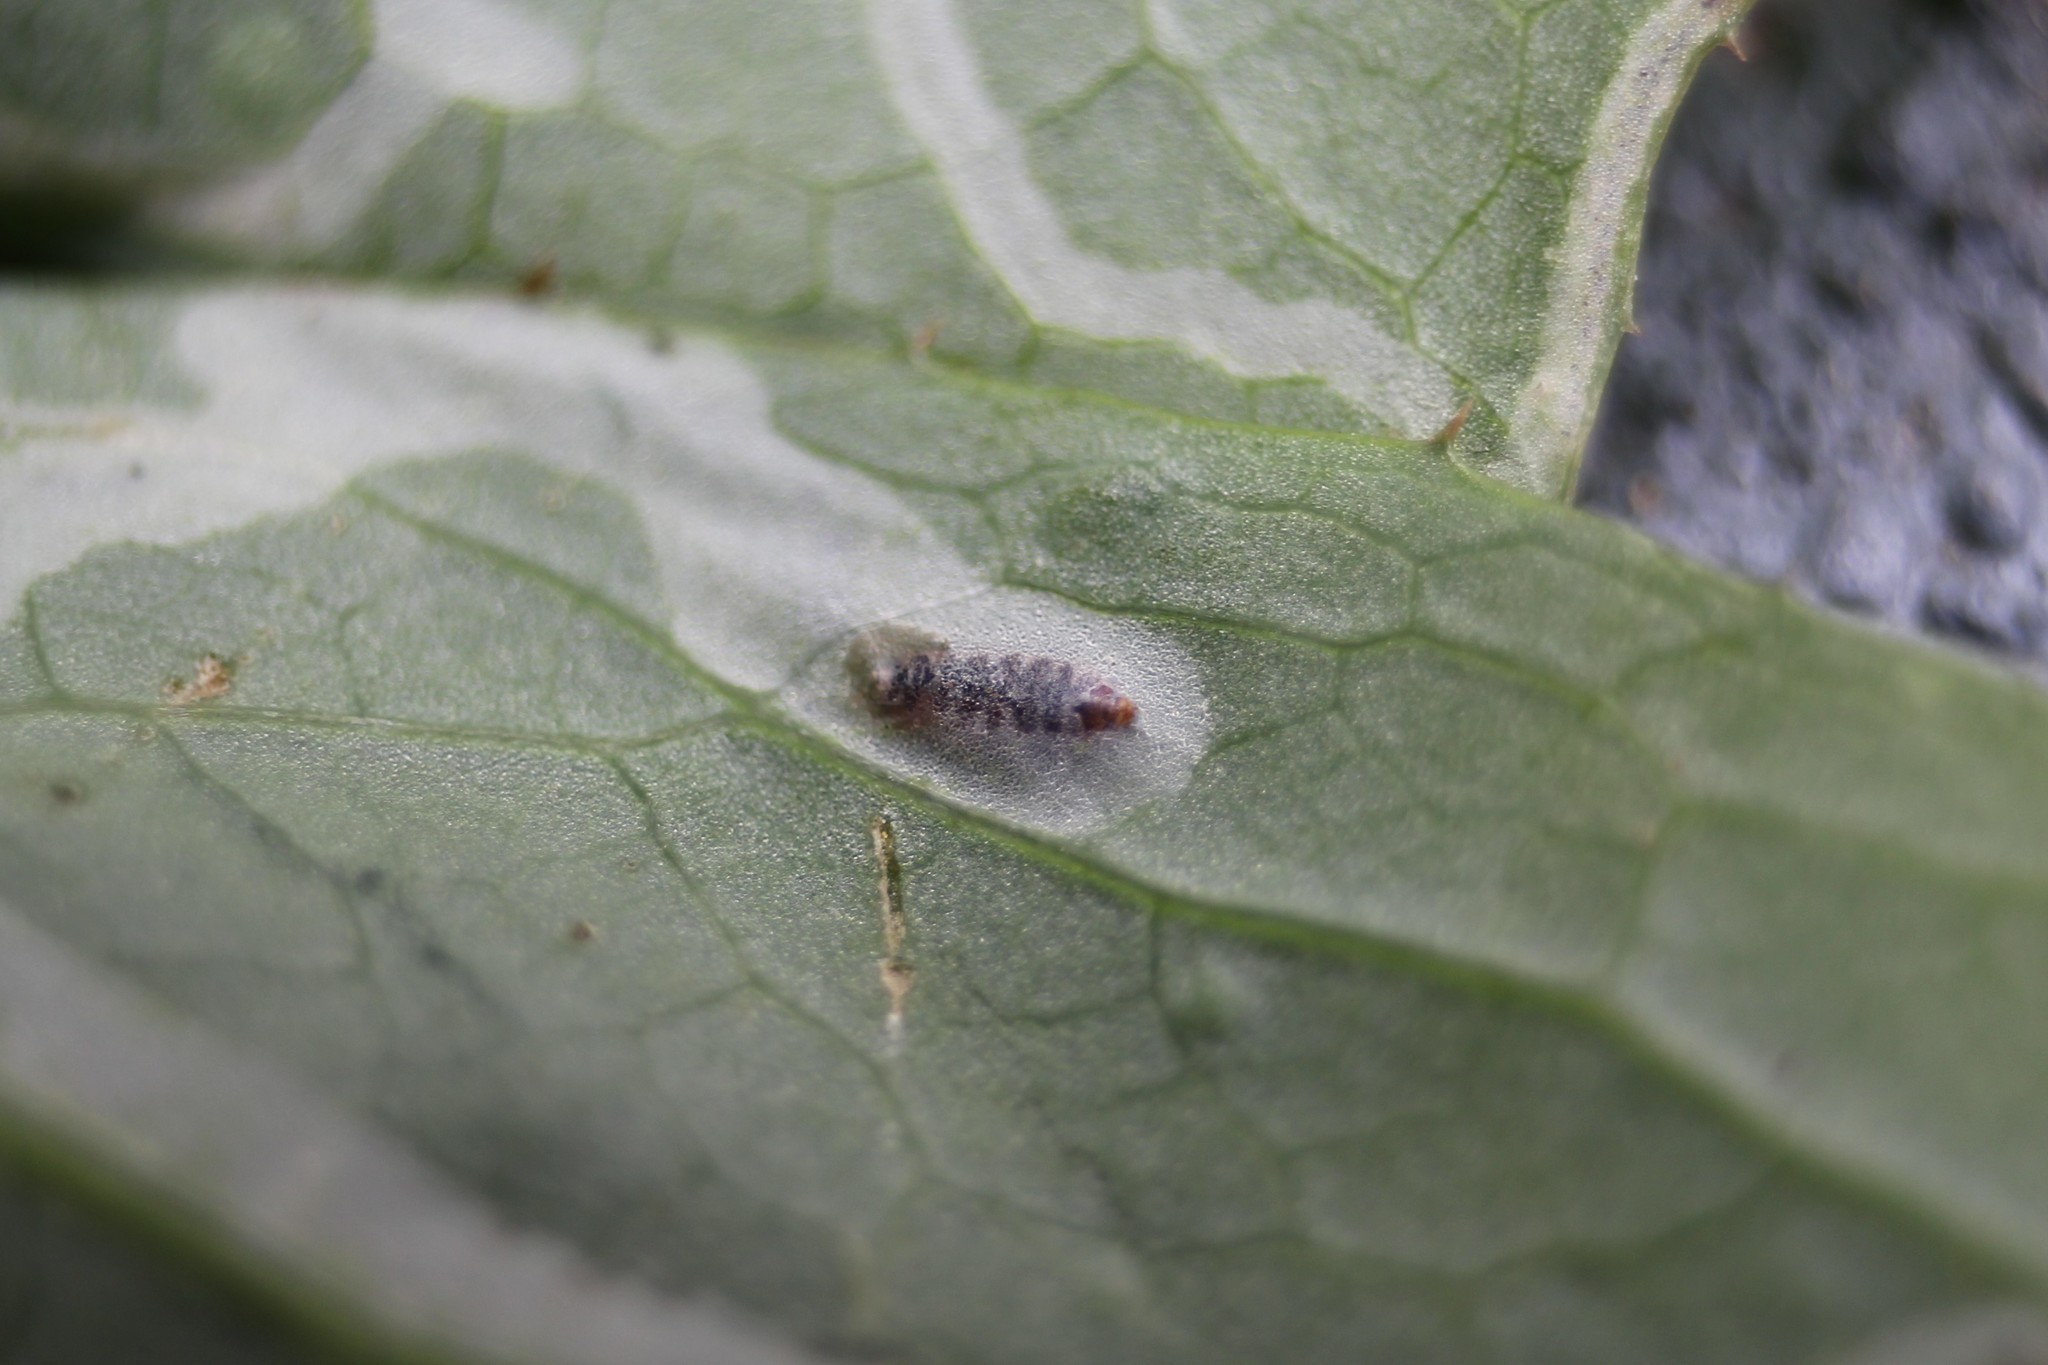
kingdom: Animalia
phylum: Arthropoda
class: Insecta
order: Diptera
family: Agromyzidae
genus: Phytomyza
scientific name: Phytomyza syngenesiae
